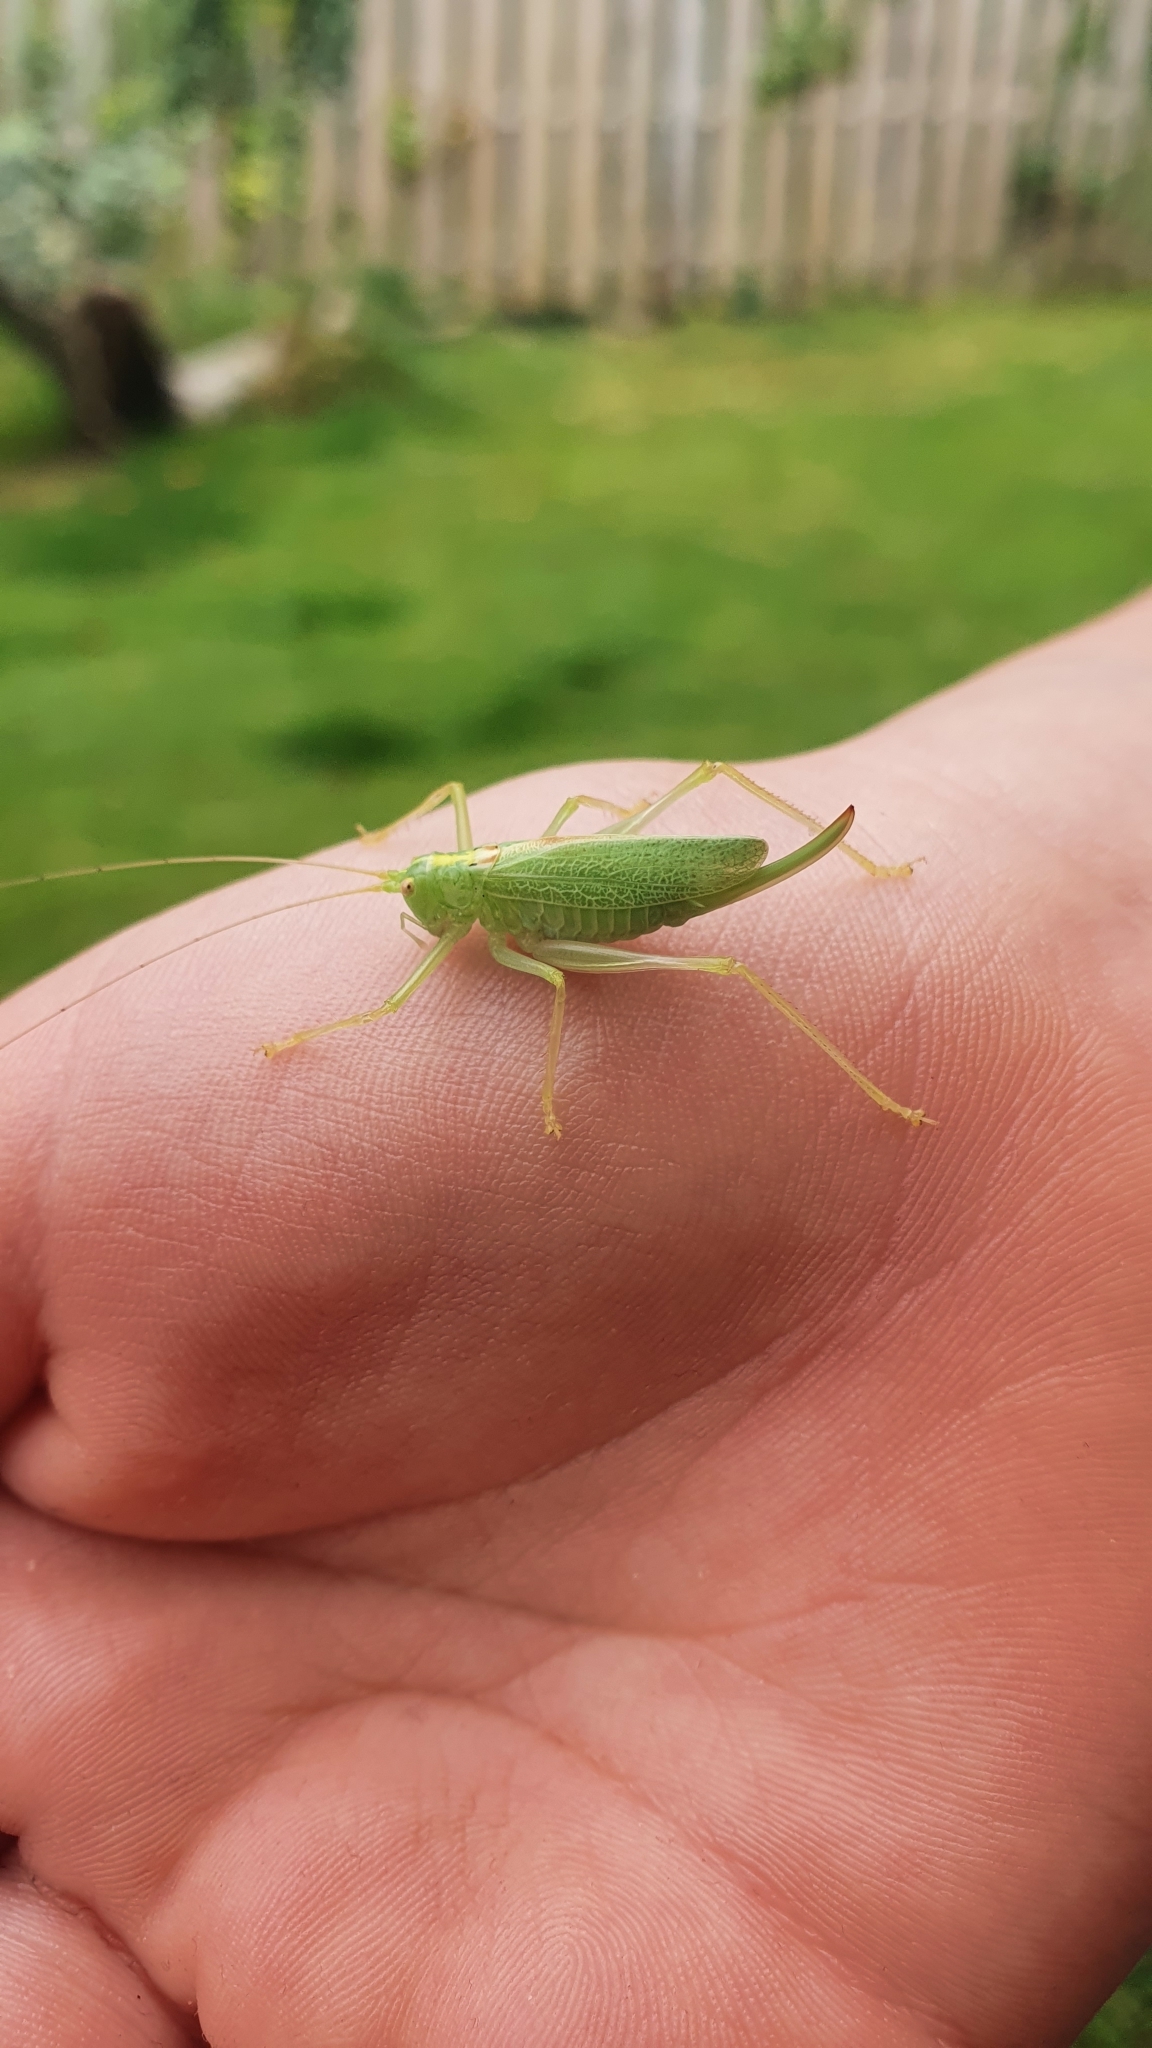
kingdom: Animalia
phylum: Arthropoda
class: Insecta
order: Orthoptera
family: Tettigoniidae
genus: Meconema
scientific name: Meconema thalassinum
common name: Oak bush-cricket
